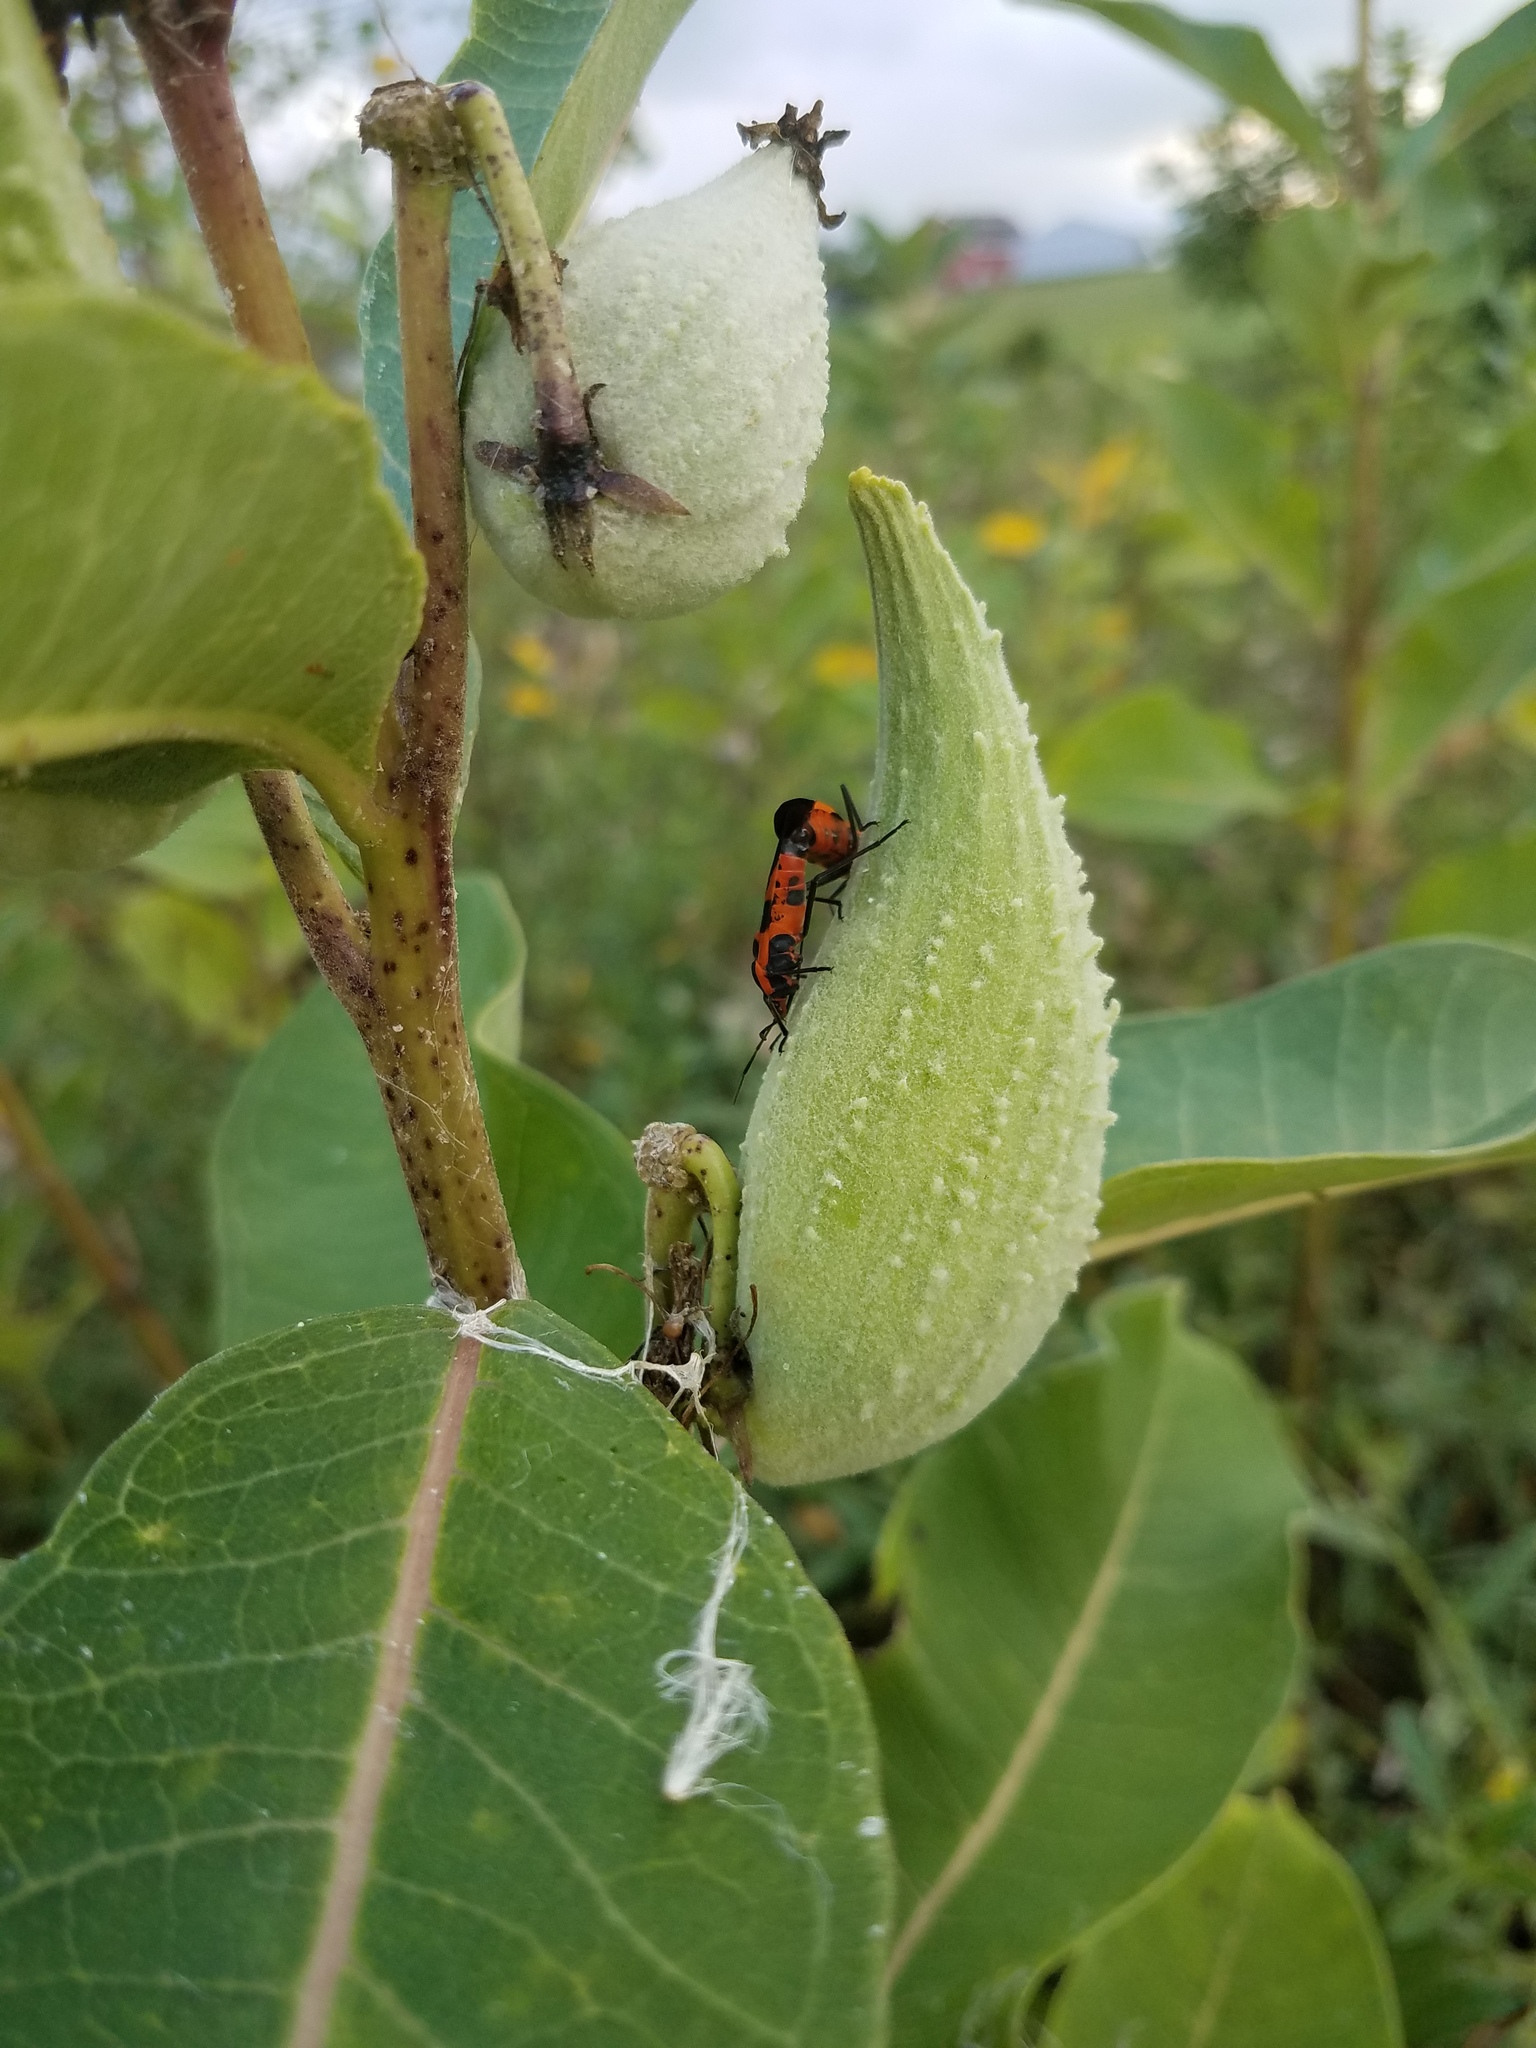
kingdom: Plantae
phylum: Tracheophyta
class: Magnoliopsida
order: Gentianales
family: Apocynaceae
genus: Asclepias
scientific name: Asclepias syriaca
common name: Common milkweed
